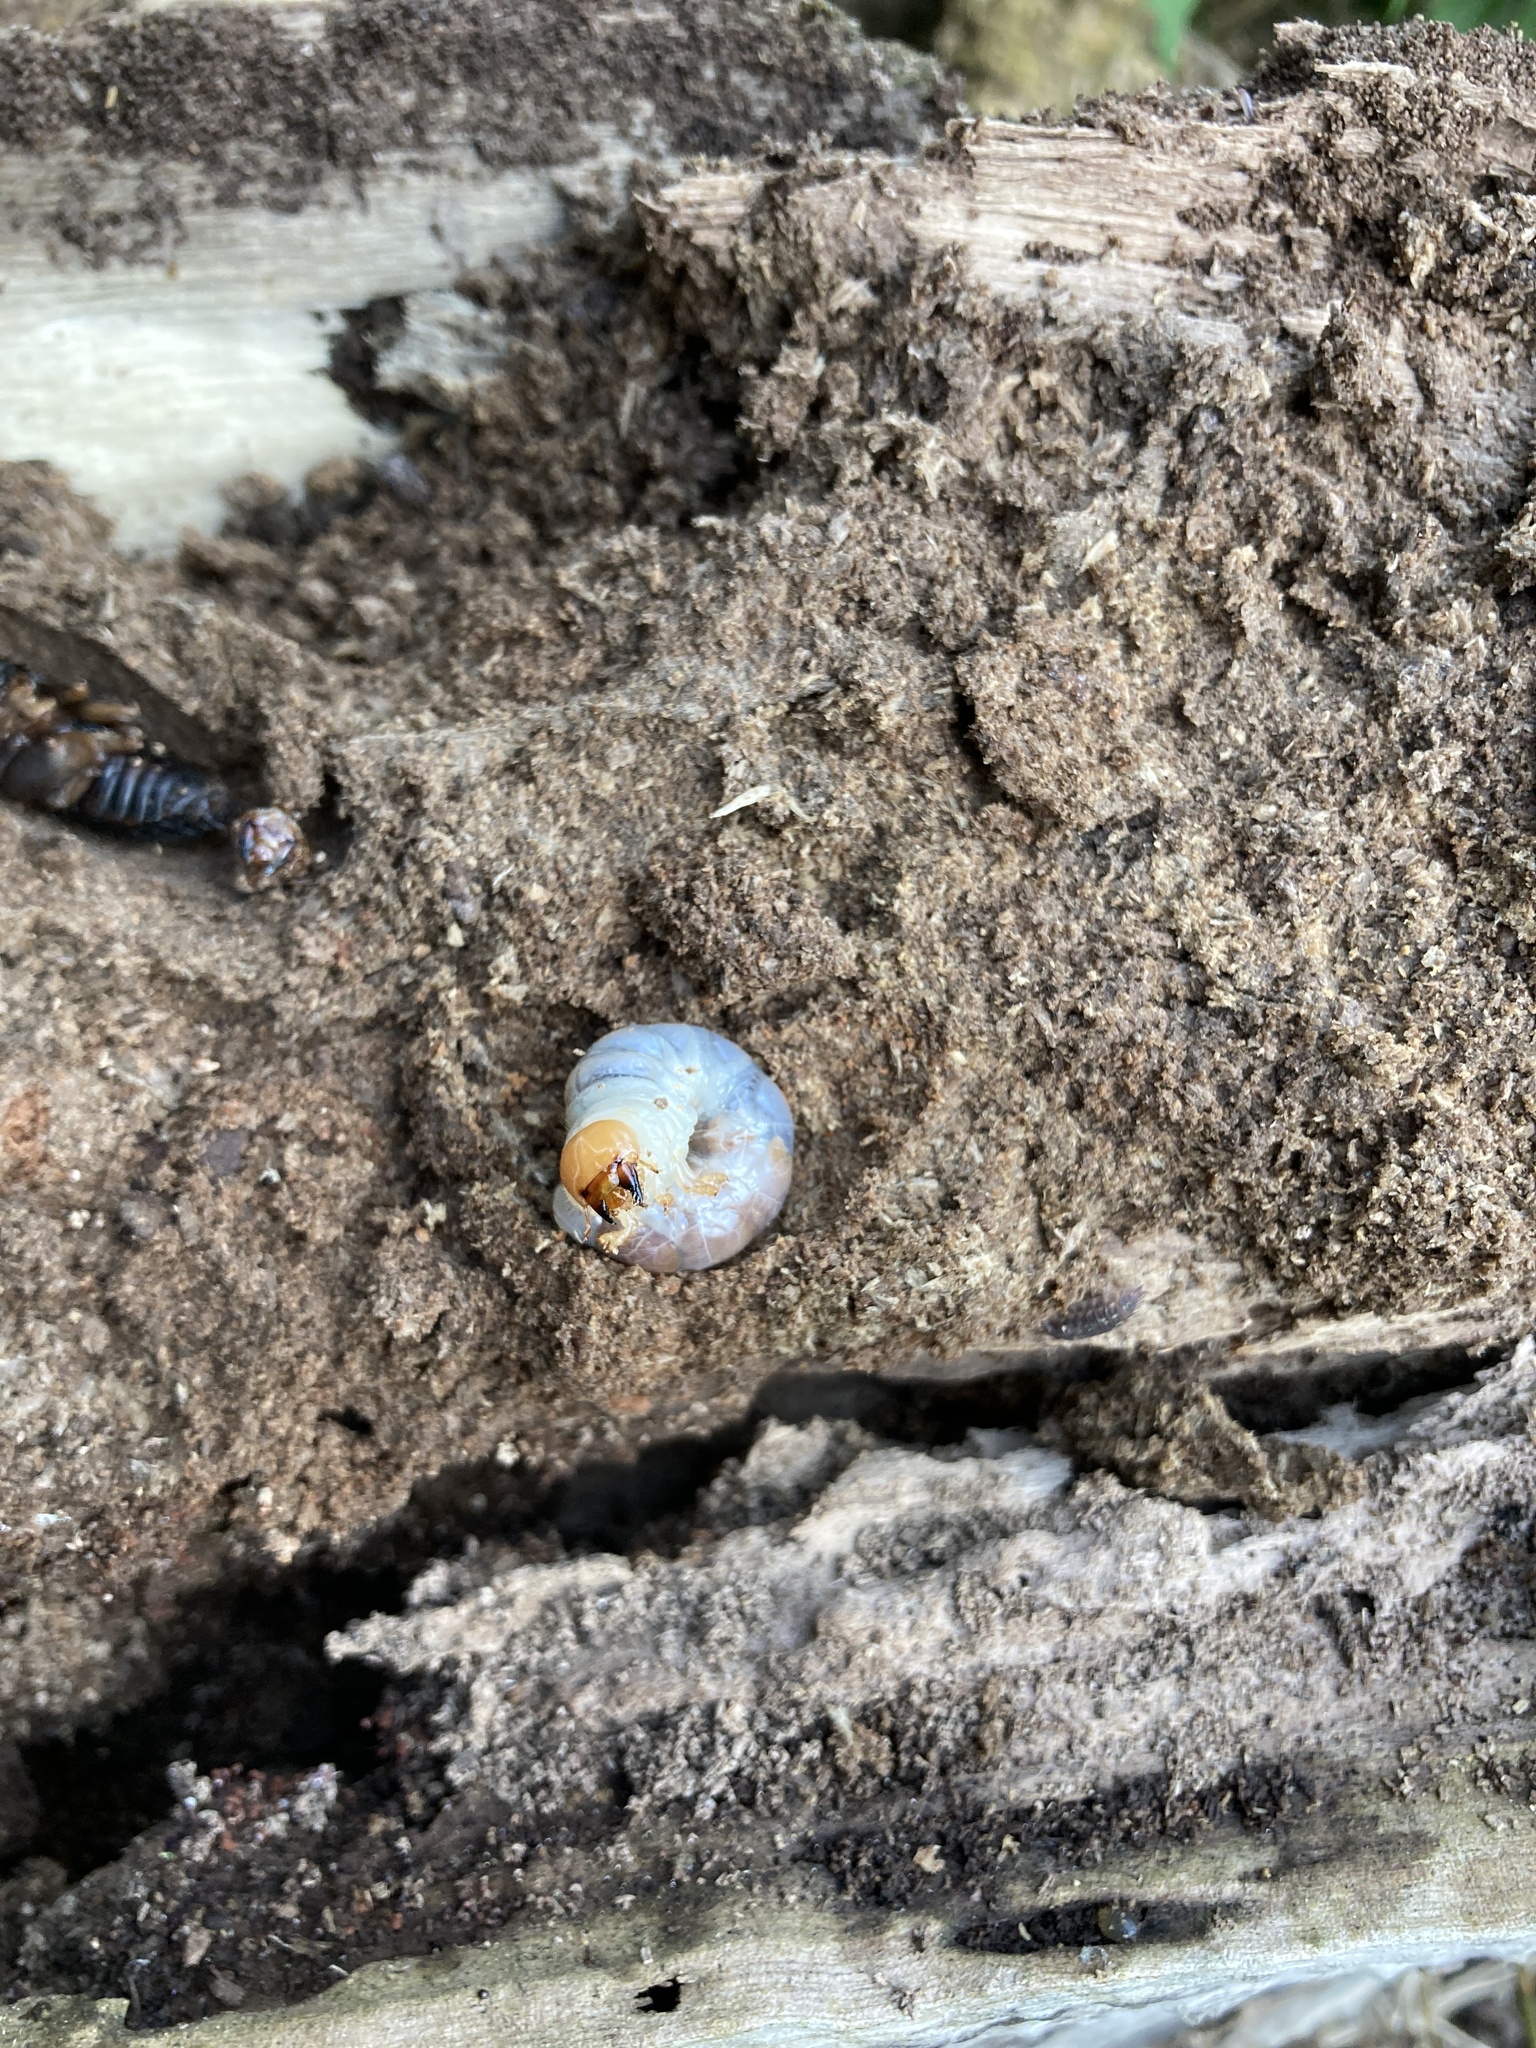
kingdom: Animalia
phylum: Arthropoda
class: Insecta
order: Coleoptera
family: Lucanidae
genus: Dorcus
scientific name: Dorcus parallelipipedus
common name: Lesser stag beetle
